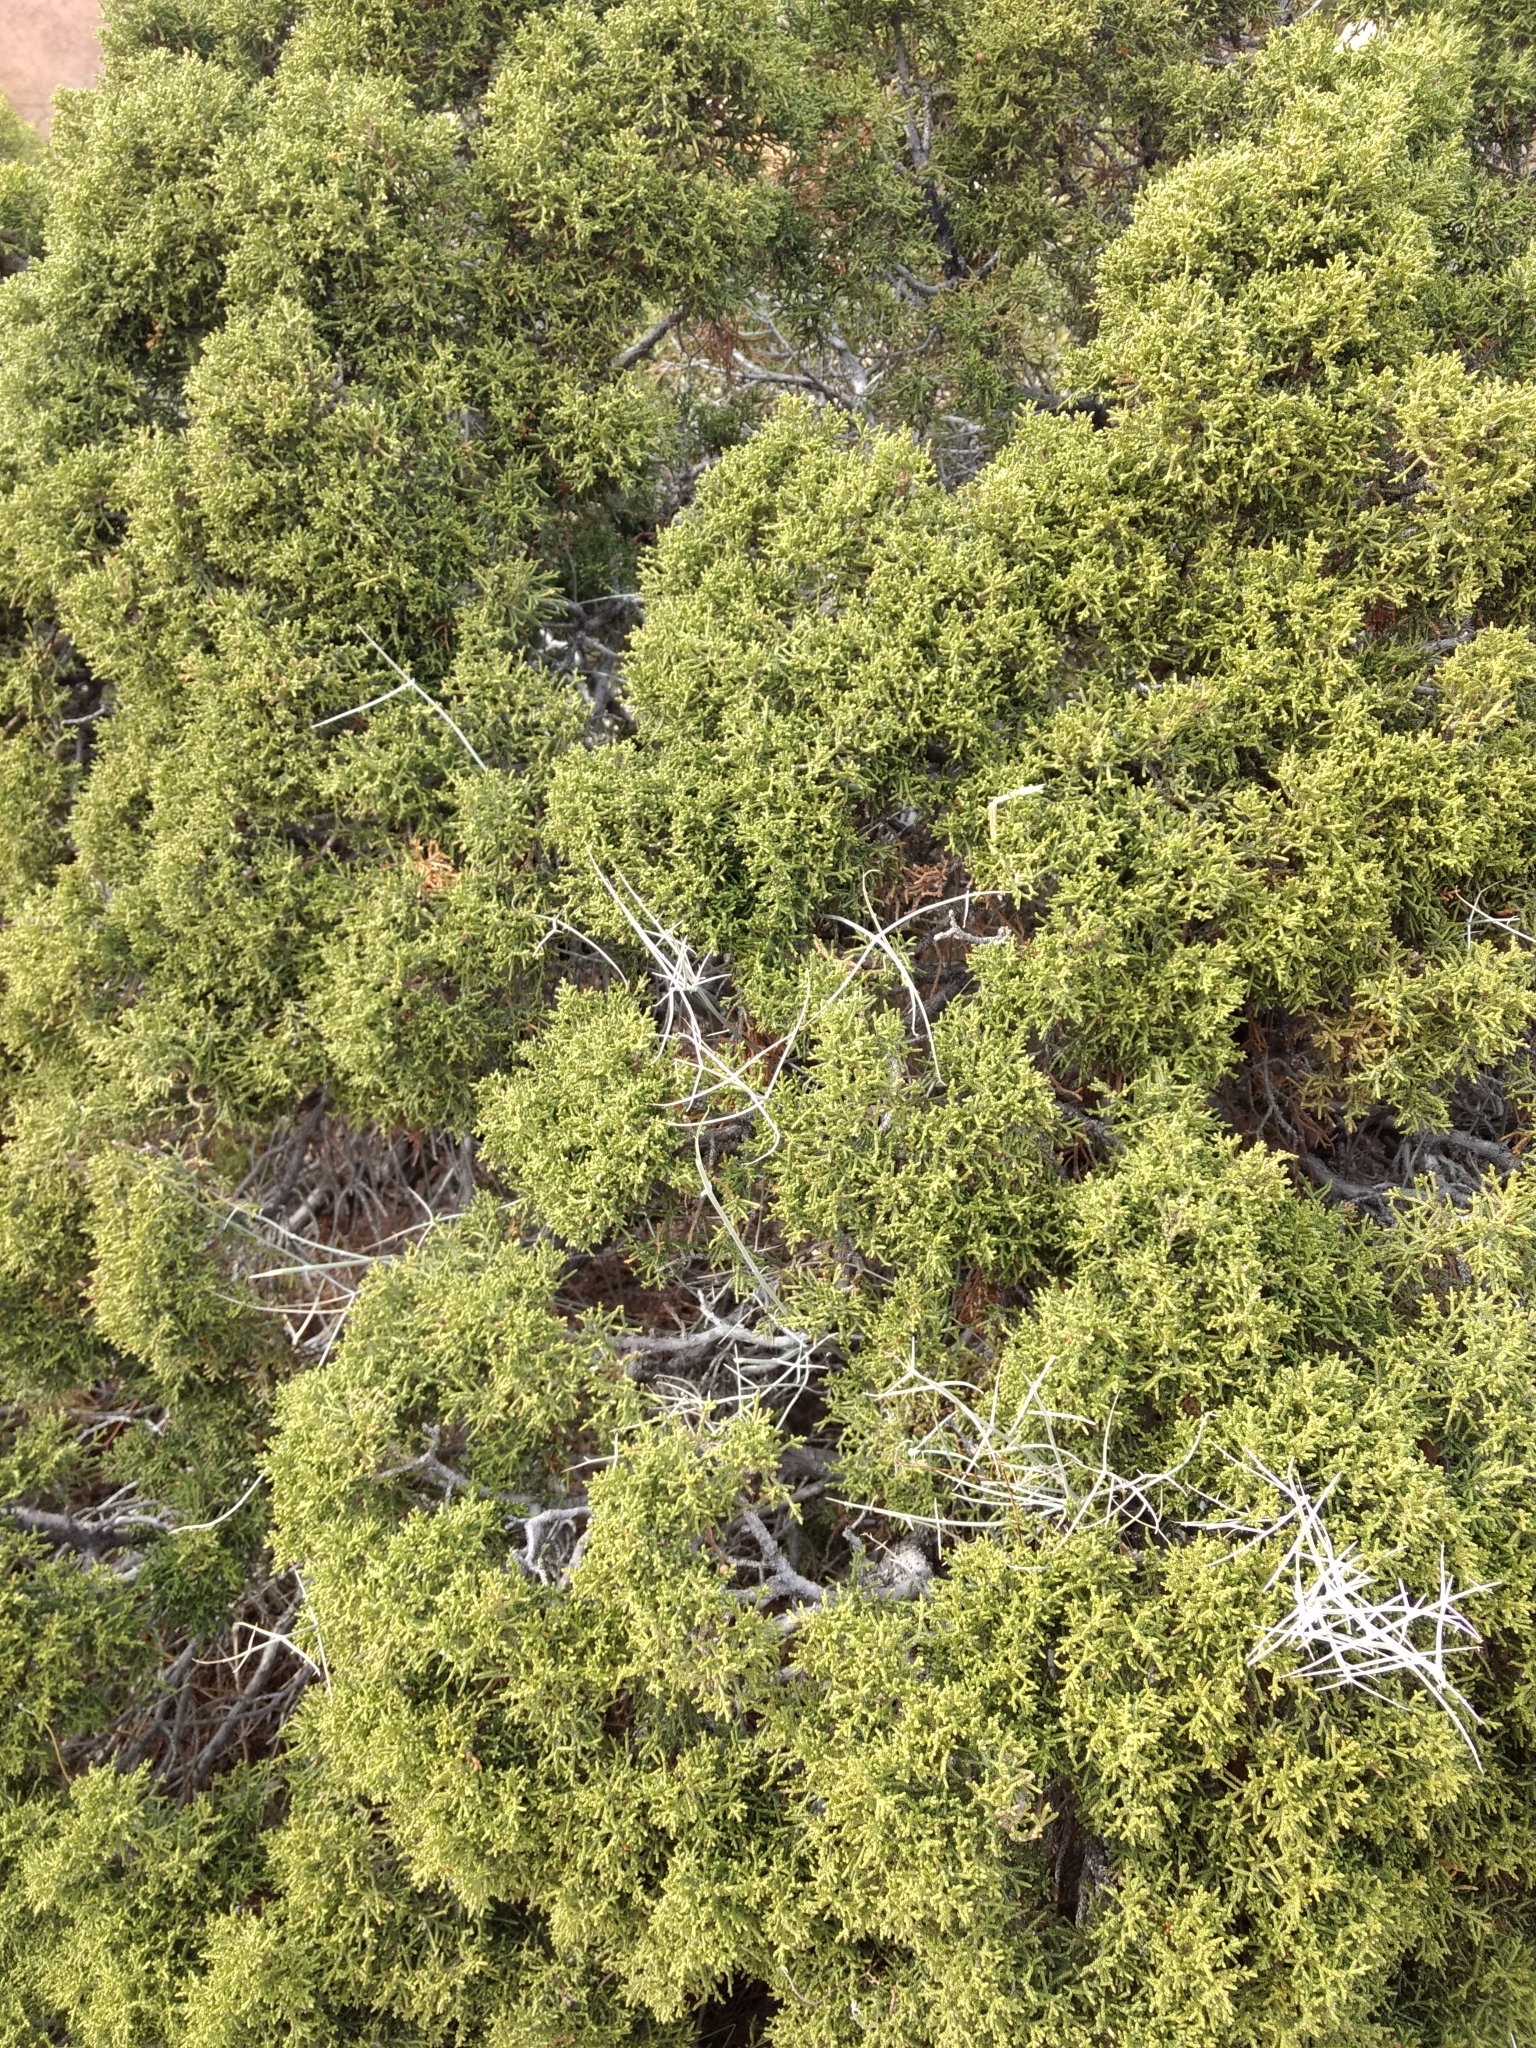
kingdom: Plantae
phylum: Tracheophyta
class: Pinopsida
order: Pinales
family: Cupressaceae
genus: Juniperus
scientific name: Juniperus californica
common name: California juniper
